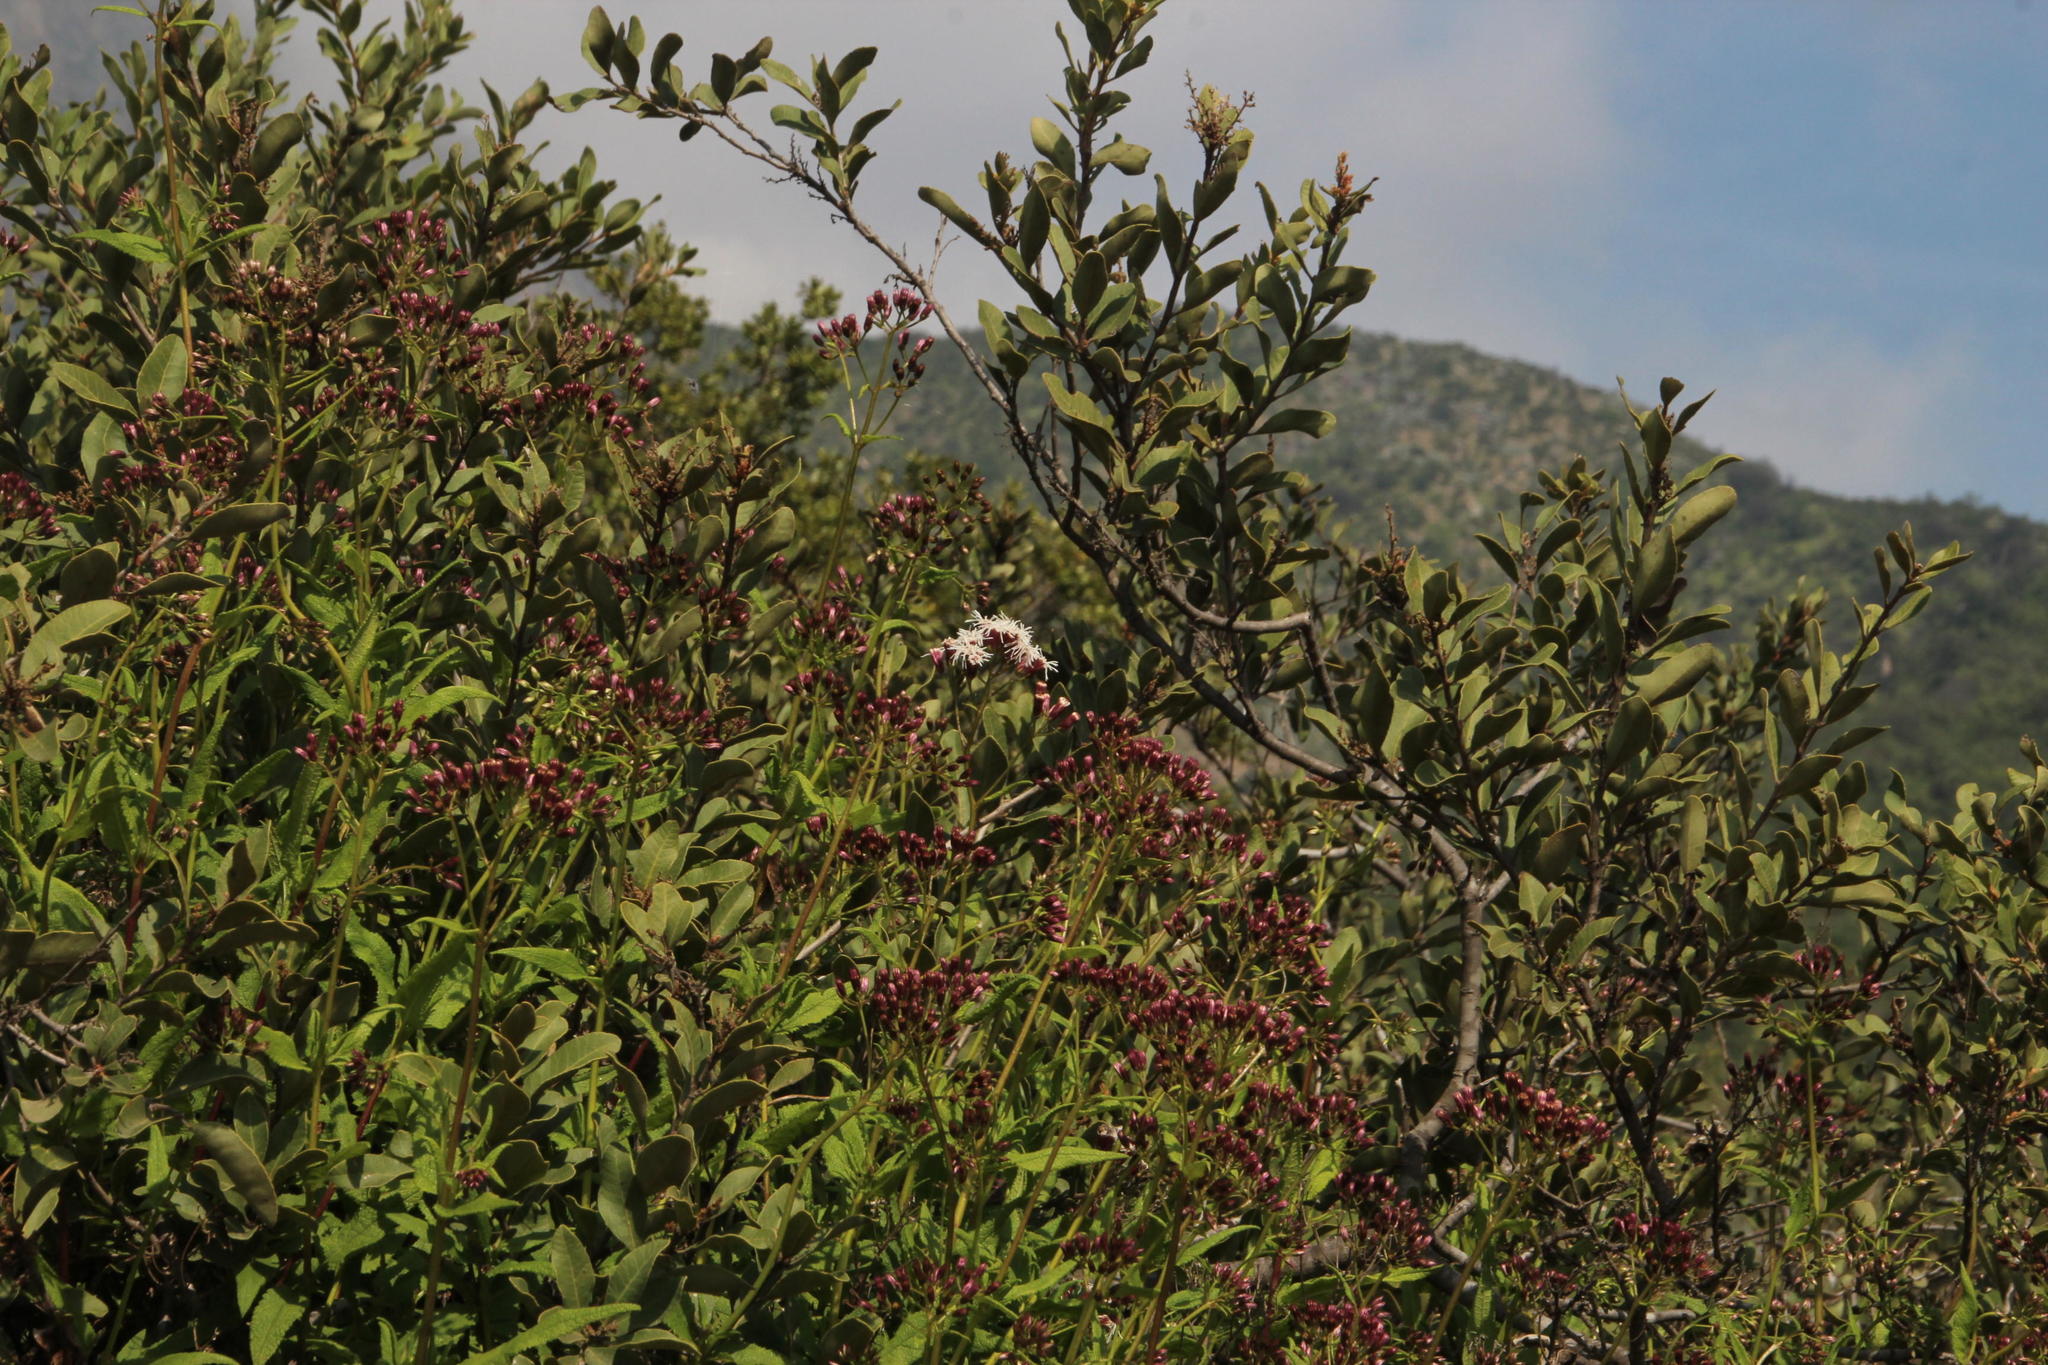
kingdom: Plantae
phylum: Tracheophyta
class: Magnoliopsida
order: Asterales
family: Asteraceae
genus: Aristeguietia
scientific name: Aristeguietia salvia
